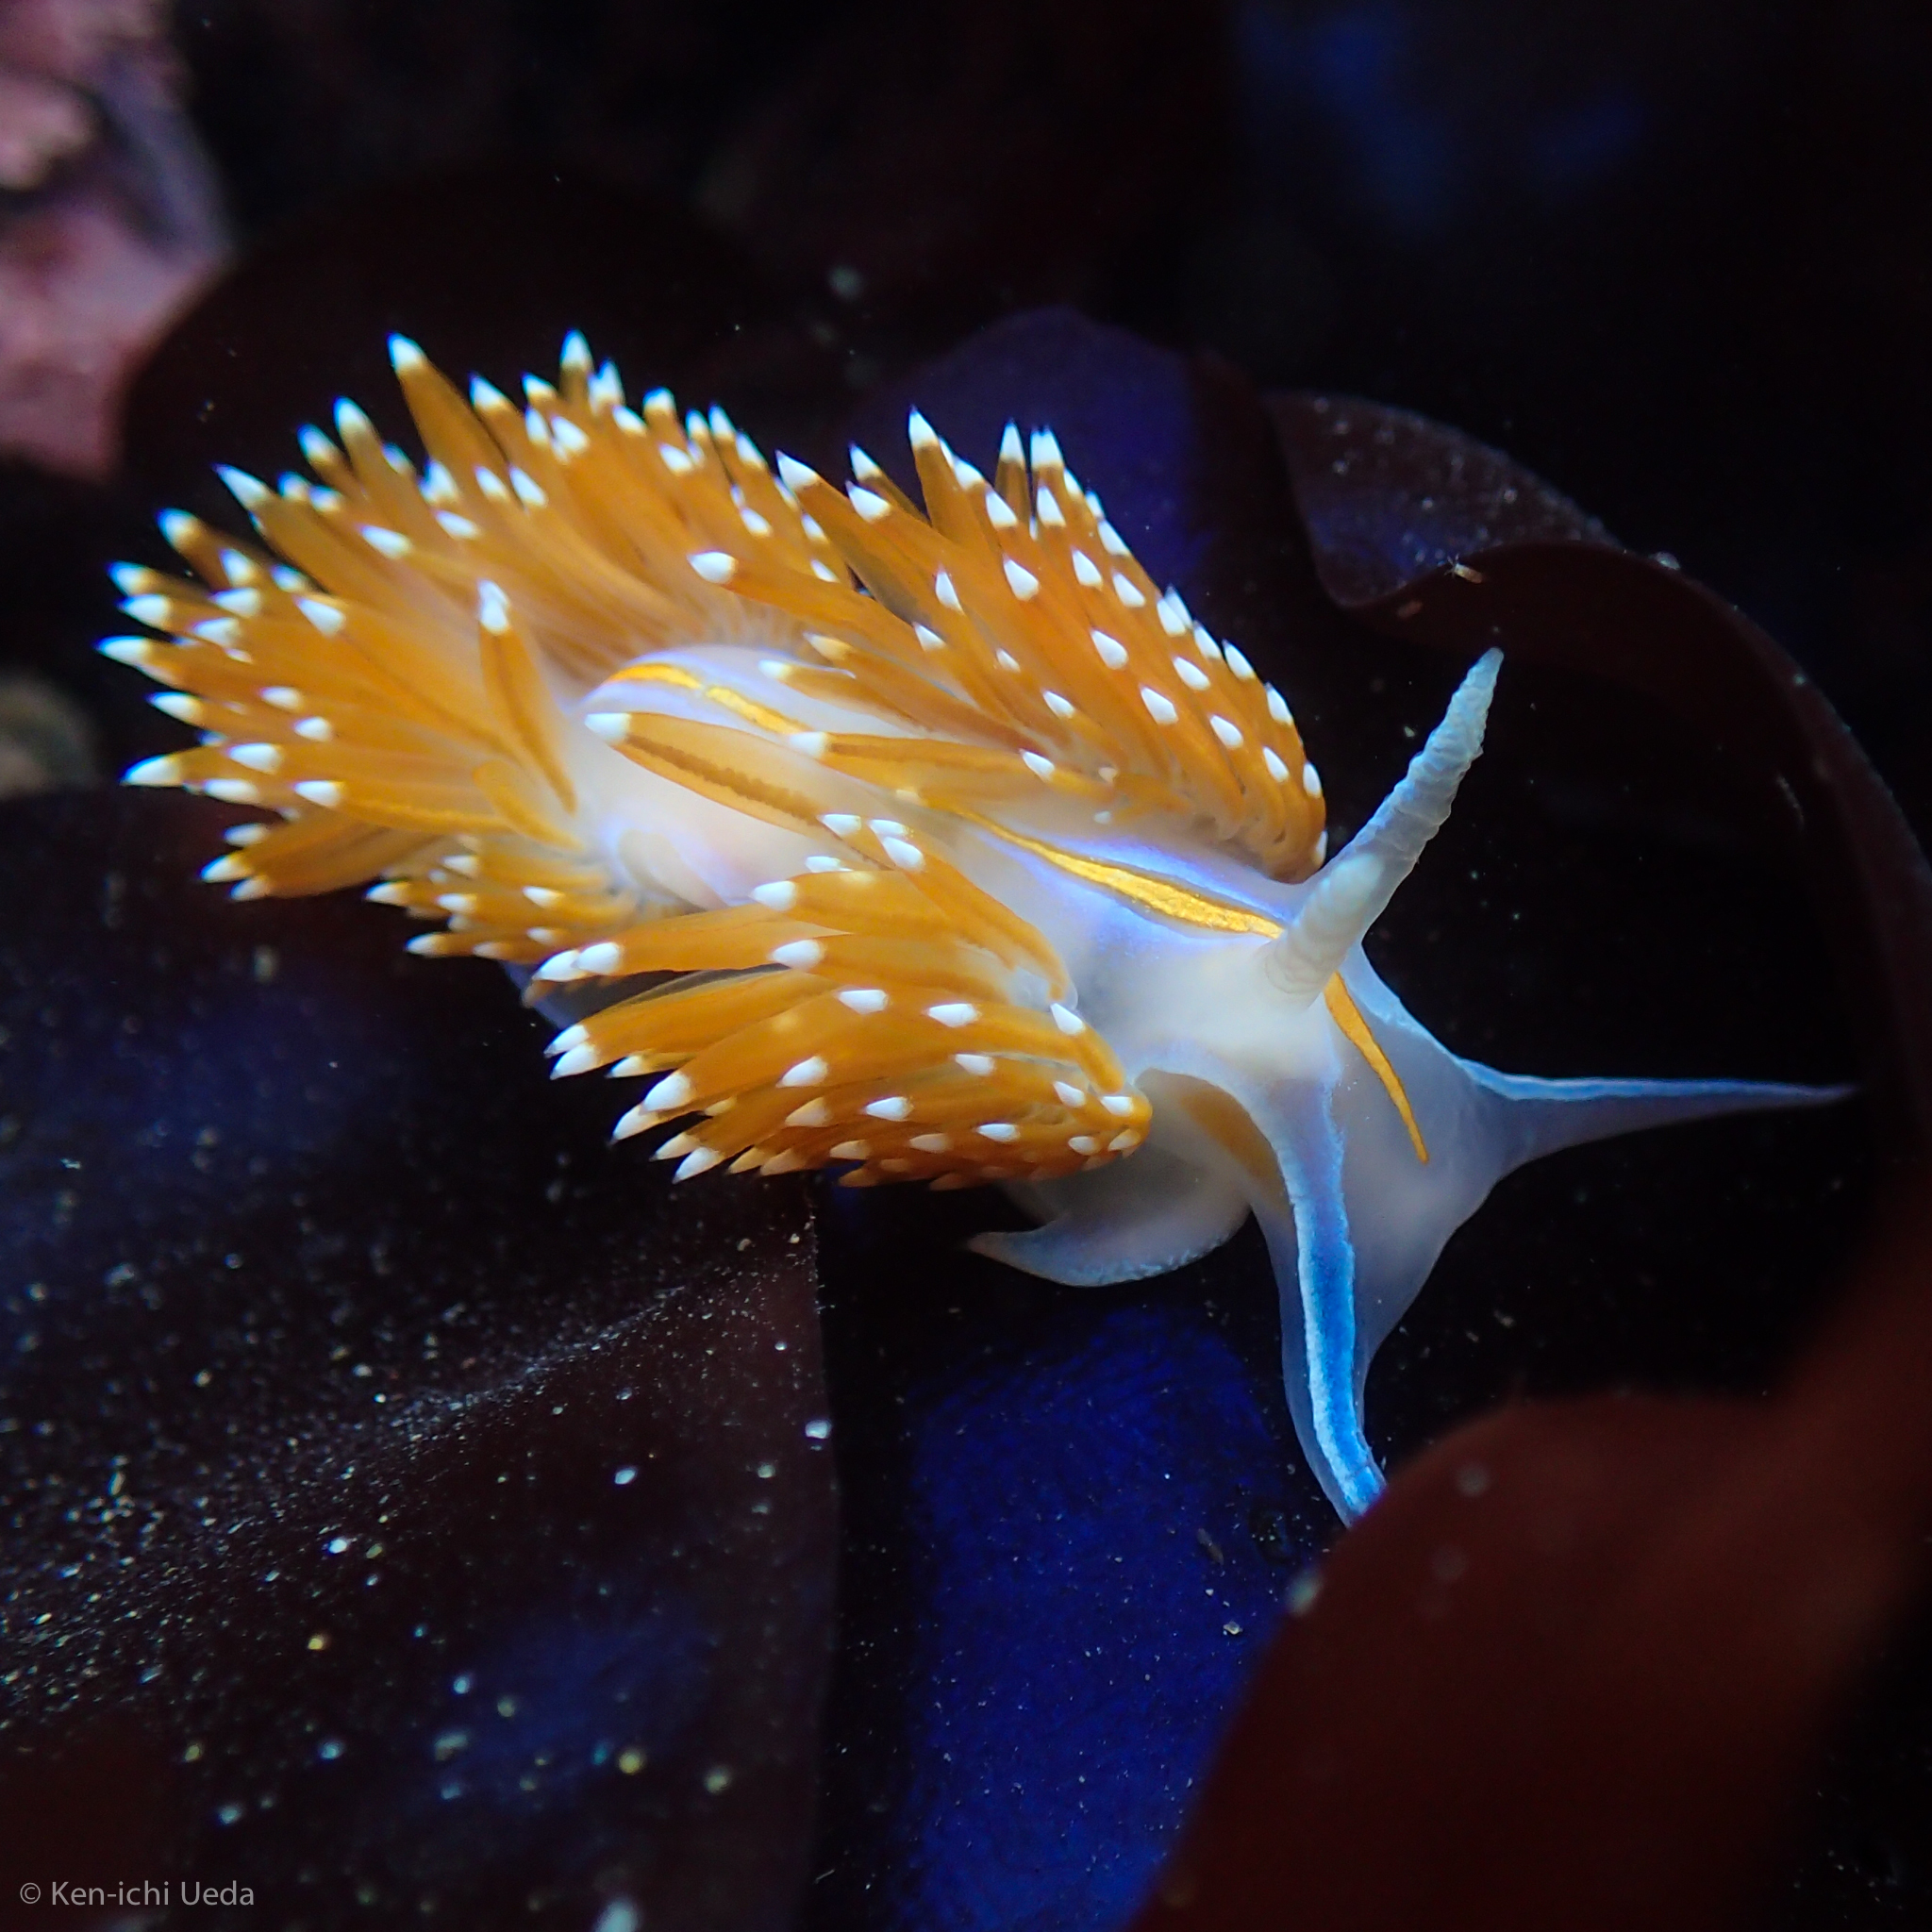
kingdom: Animalia
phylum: Mollusca
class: Gastropoda
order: Nudibranchia
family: Myrrhinidae
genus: Hermissenda
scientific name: Hermissenda opalescens
